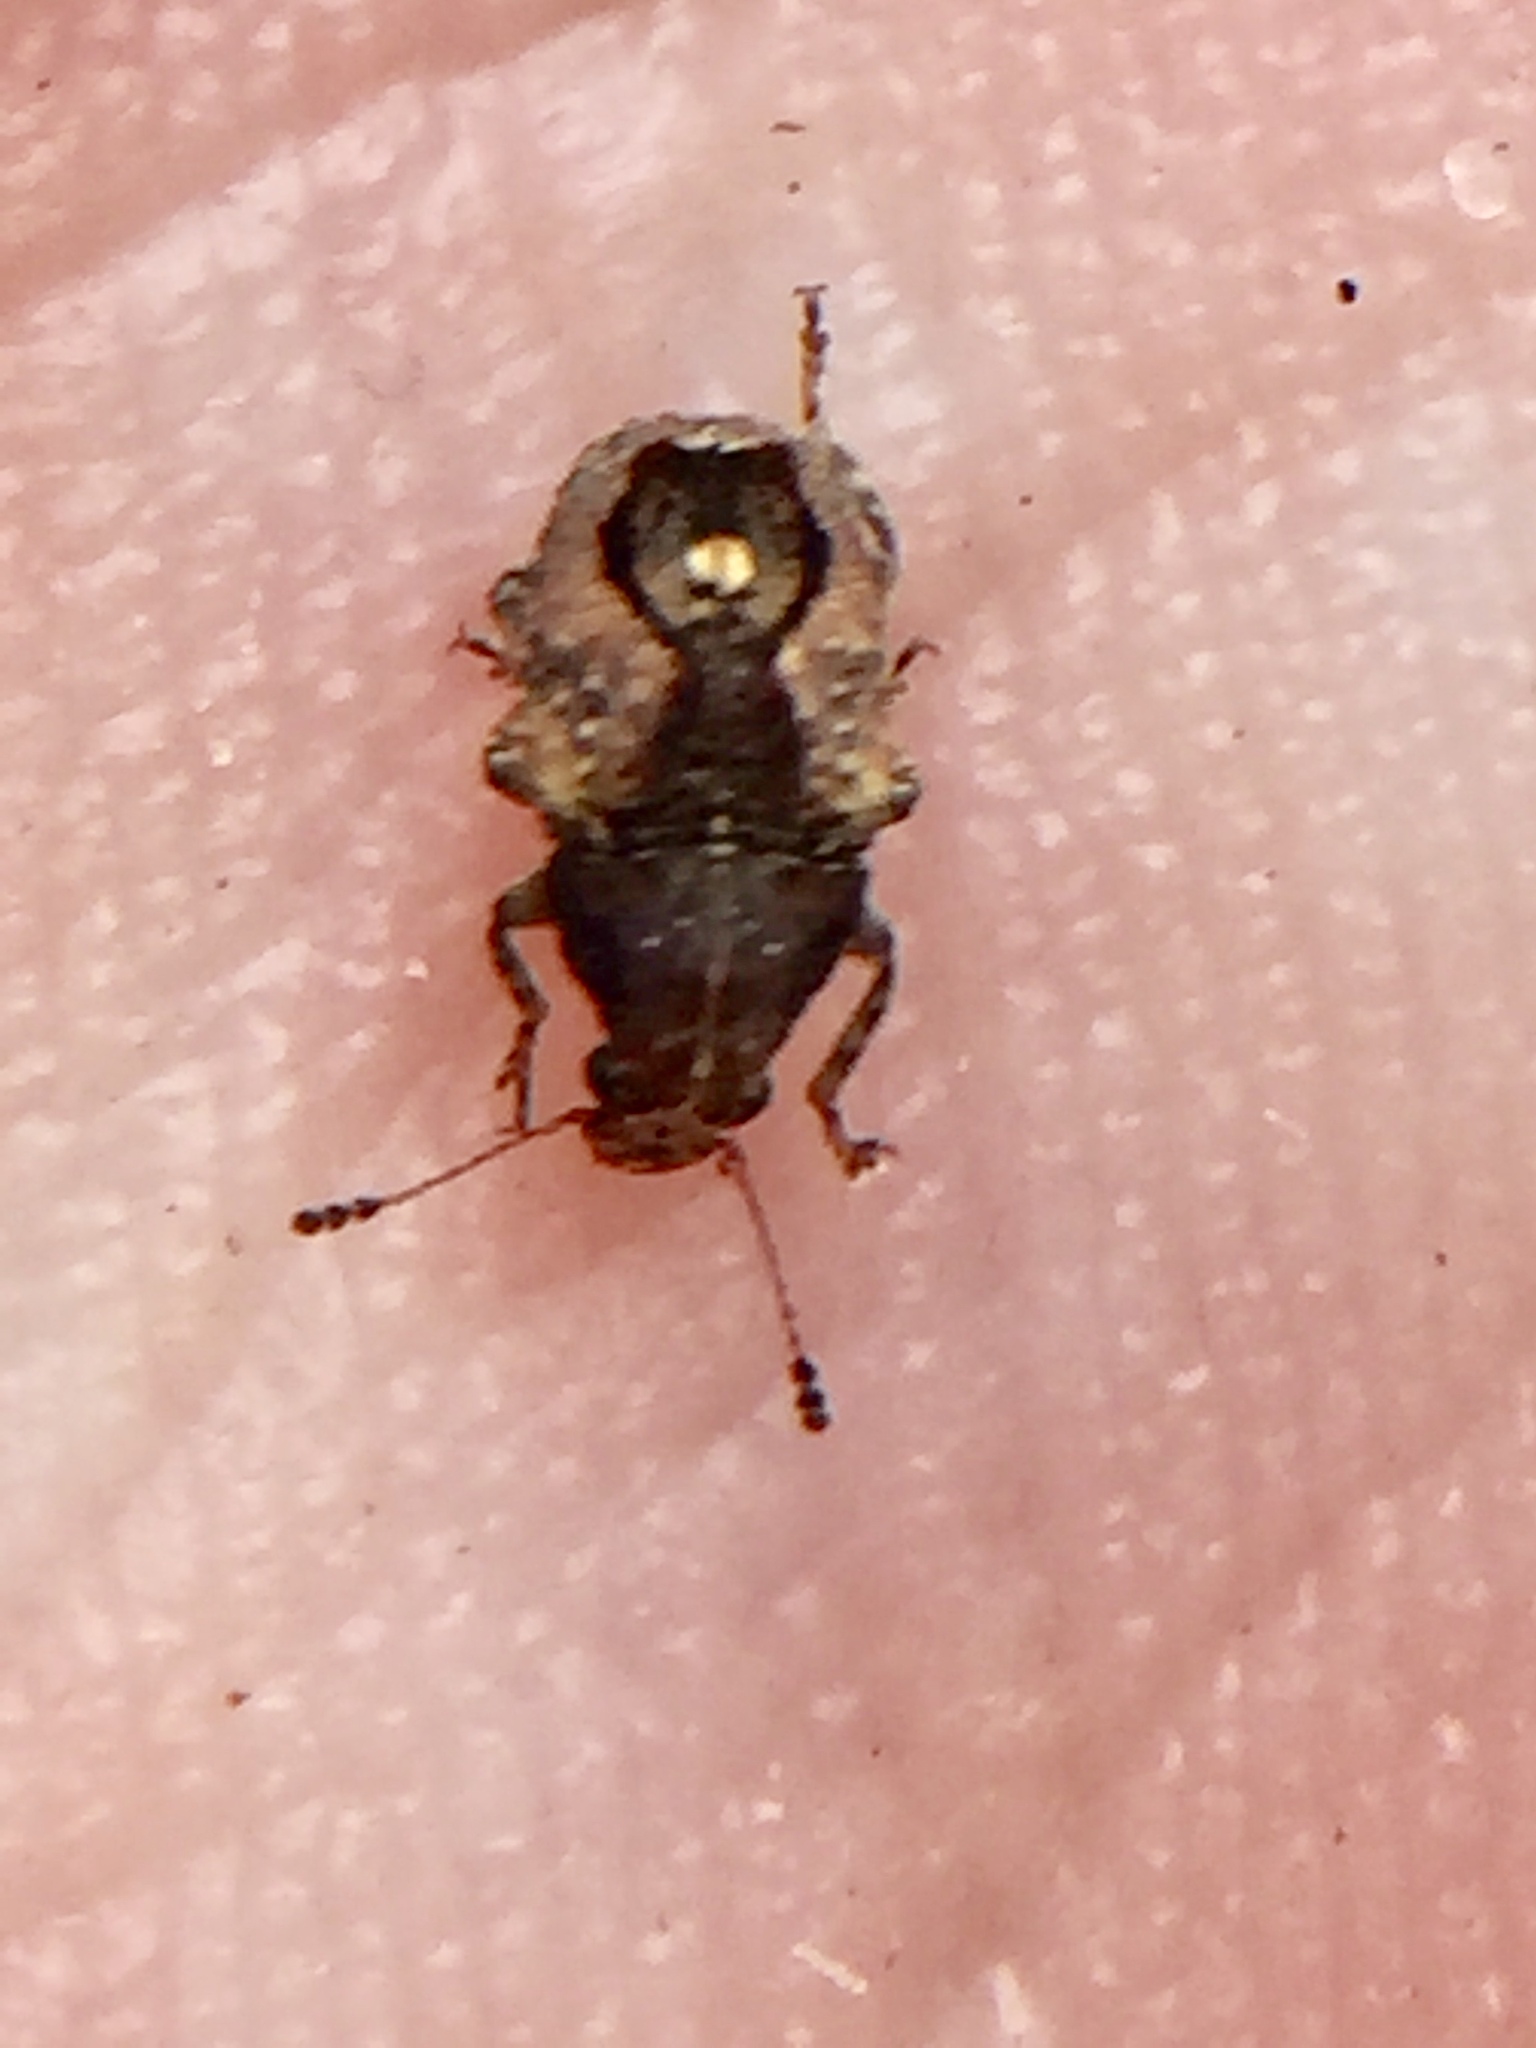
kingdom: Animalia
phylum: Arthropoda
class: Insecta
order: Coleoptera
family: Anthribidae
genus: Garyus
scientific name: Garyus altus
